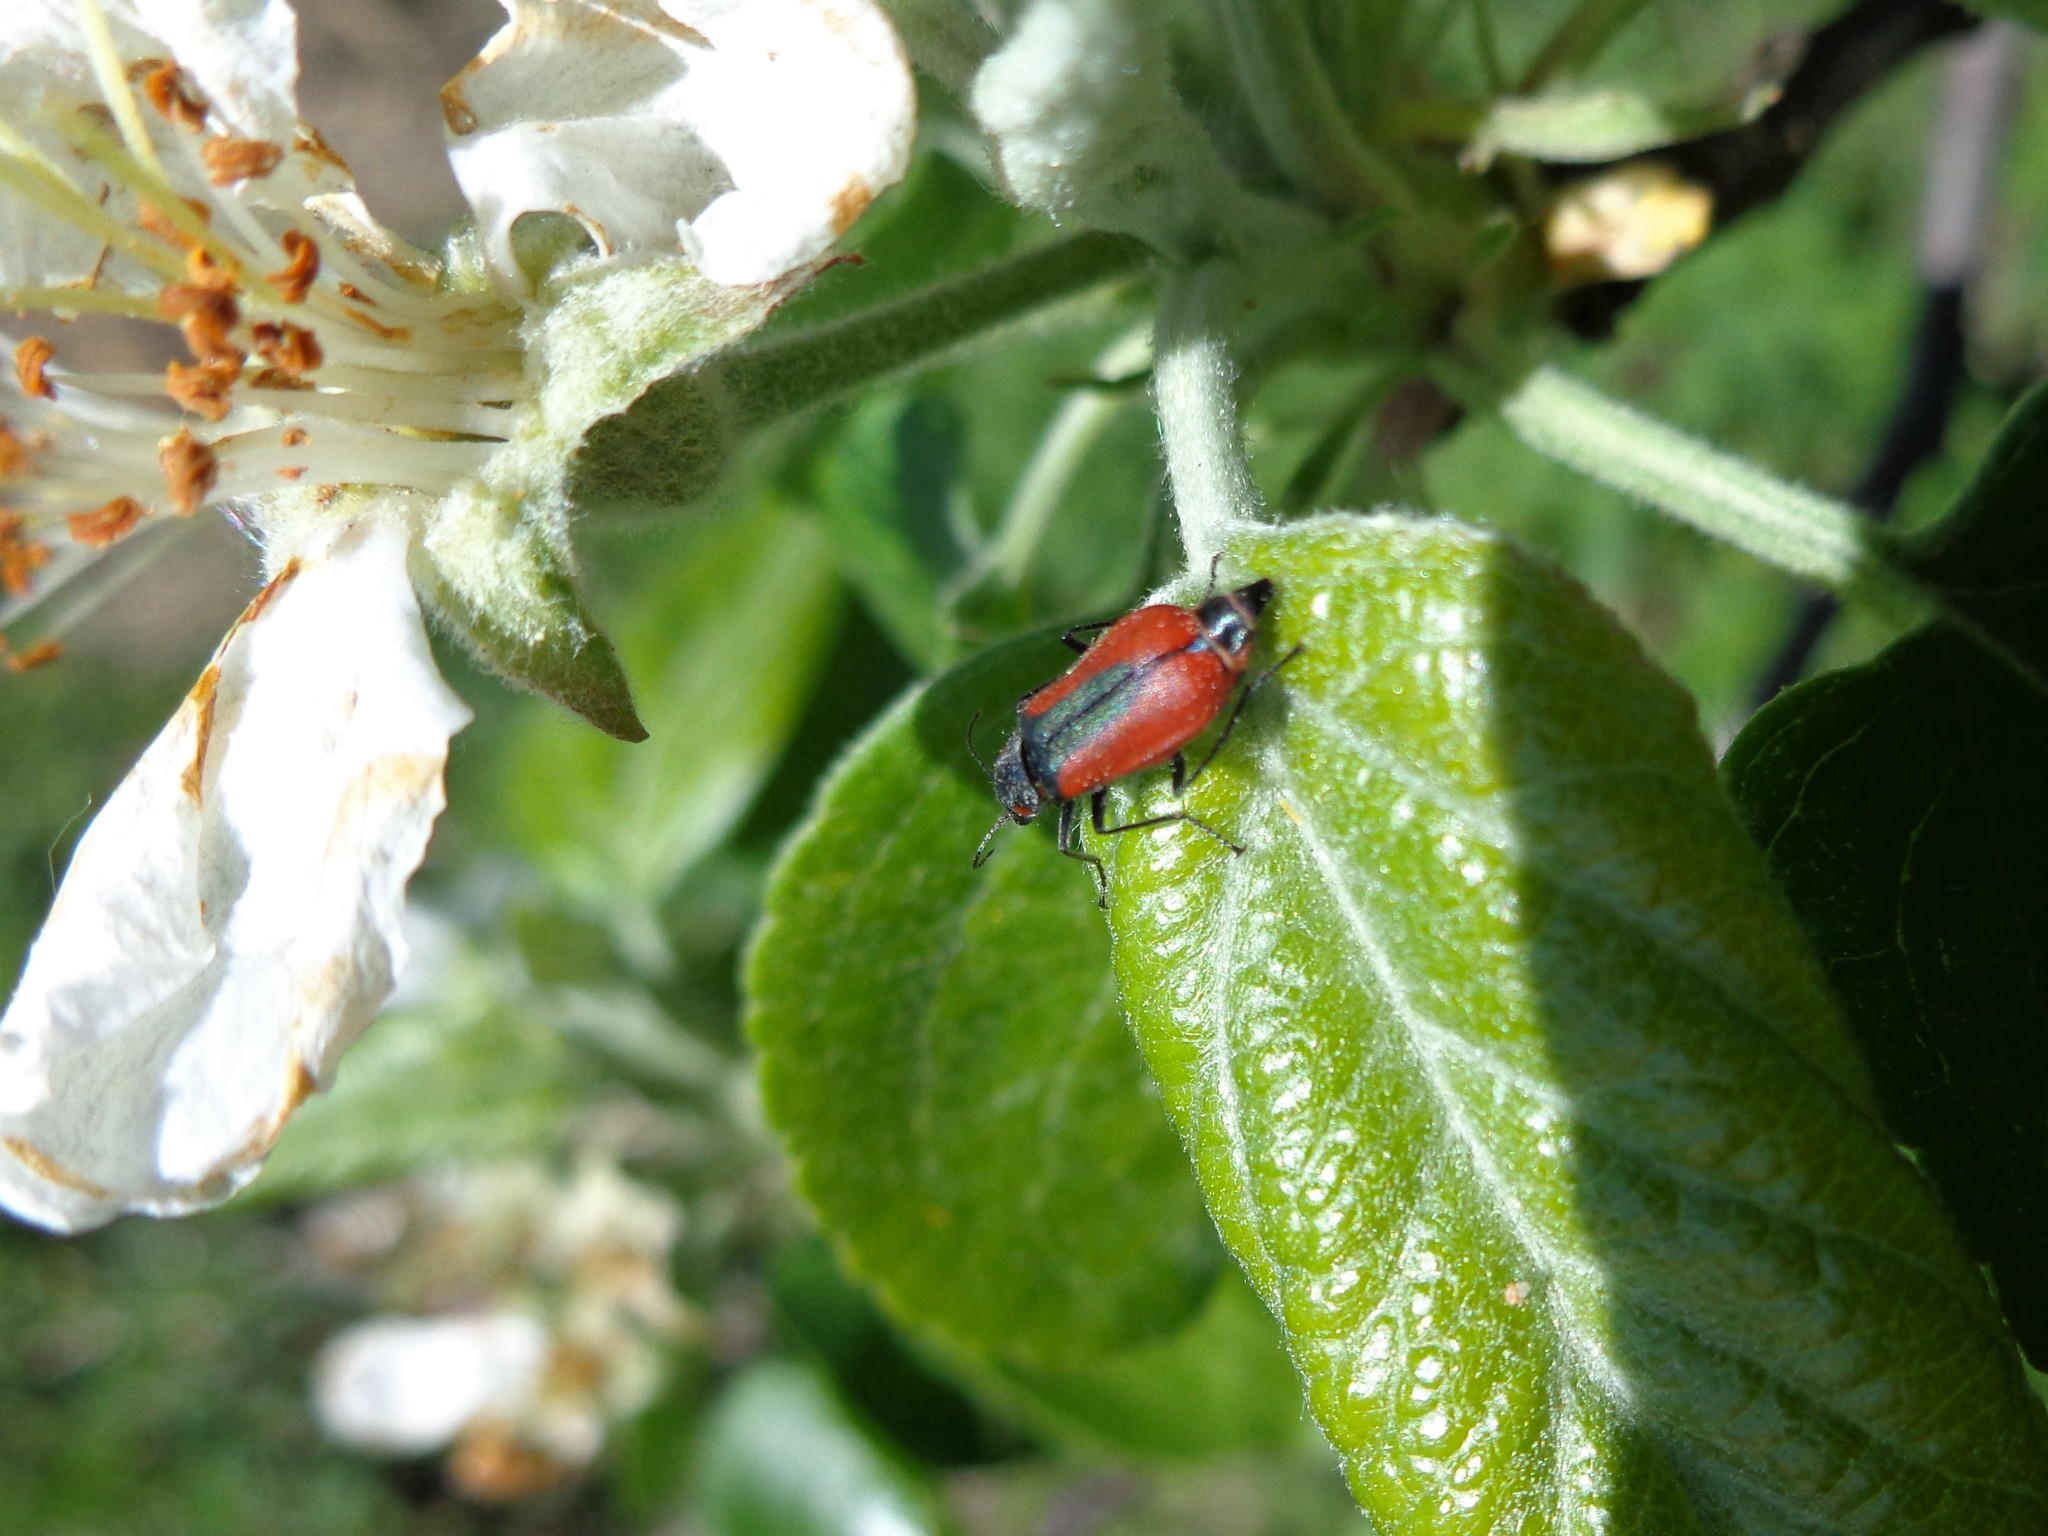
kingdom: Animalia
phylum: Arthropoda
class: Insecta
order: Coleoptera
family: Melyridae
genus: Malachius
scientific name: Malachius aeneus
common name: Scarlet malachite beetle
